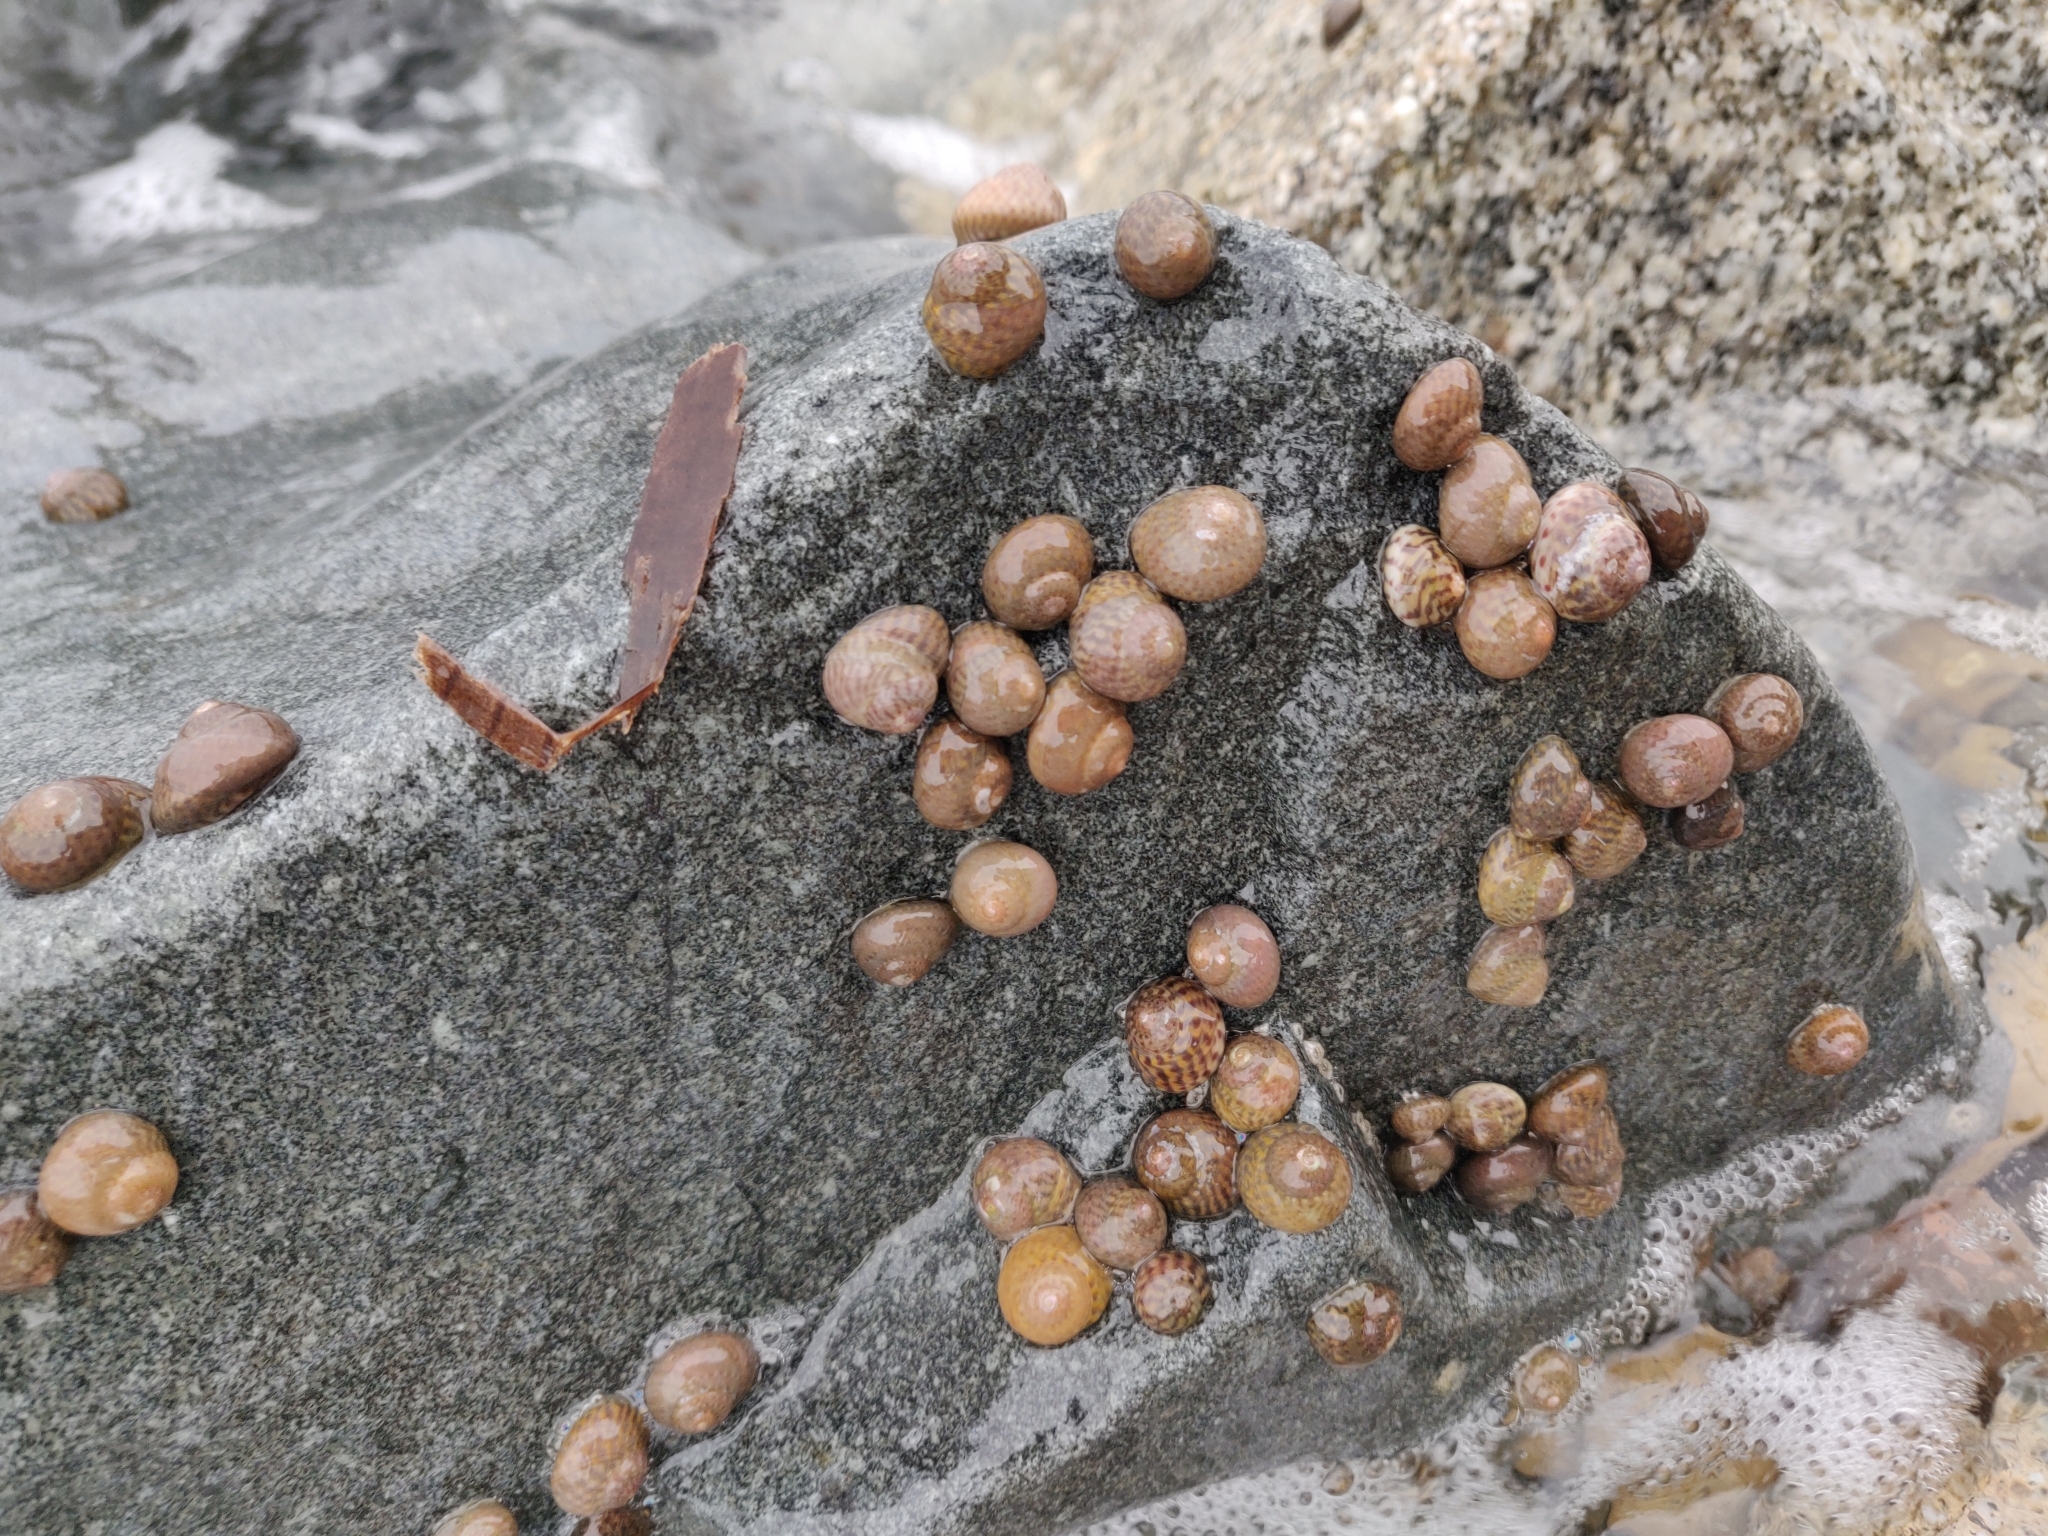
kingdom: Animalia
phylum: Mollusca
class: Gastropoda
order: Trochida
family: Trochidae
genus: Phorcus
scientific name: Phorcus richardi
